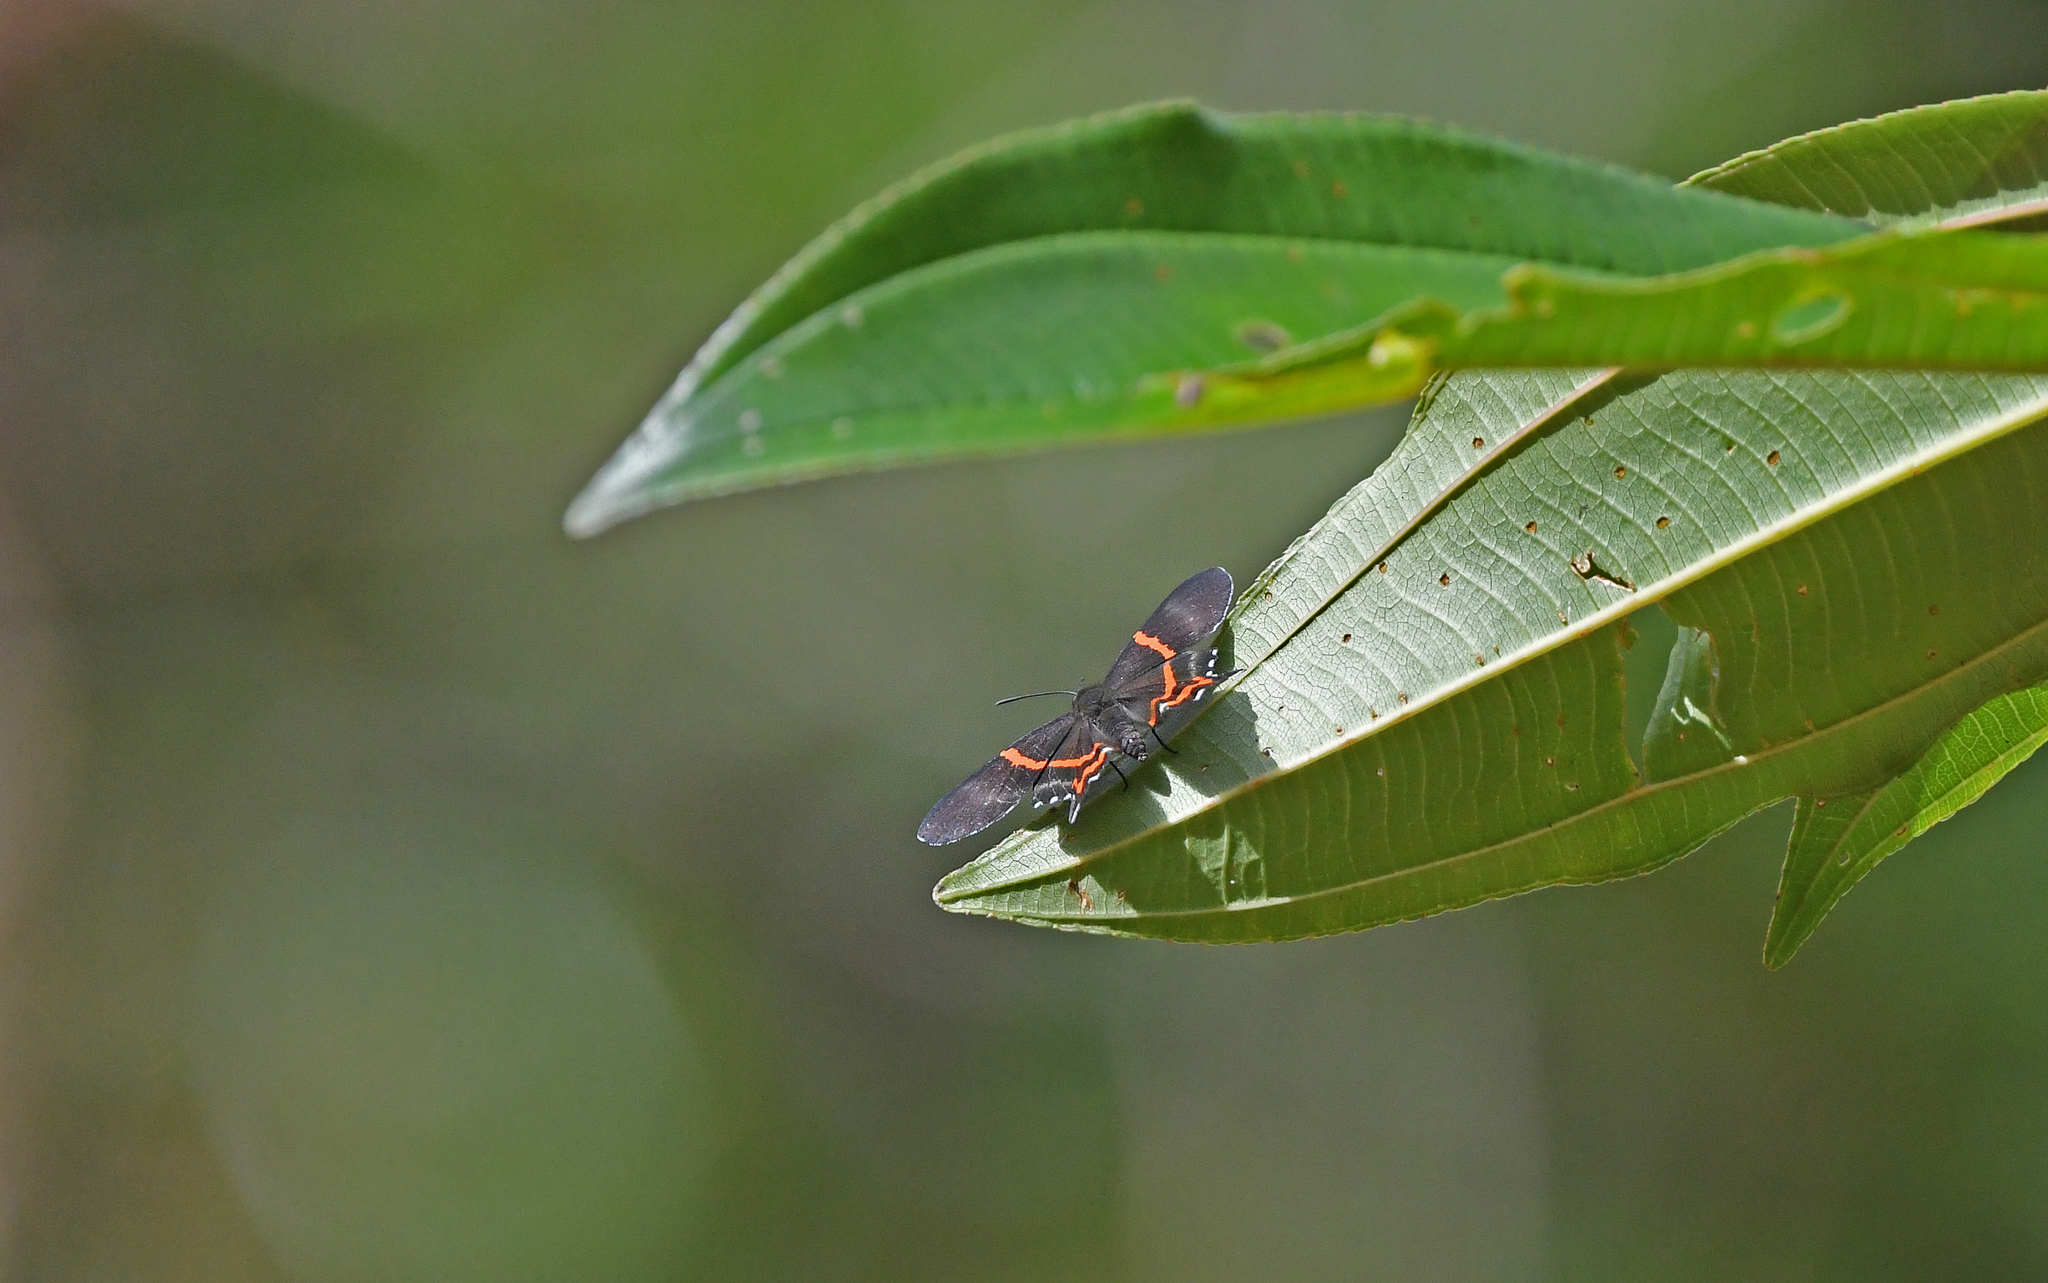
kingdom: Animalia
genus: Ancyluris
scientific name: Ancyluris aulestes
